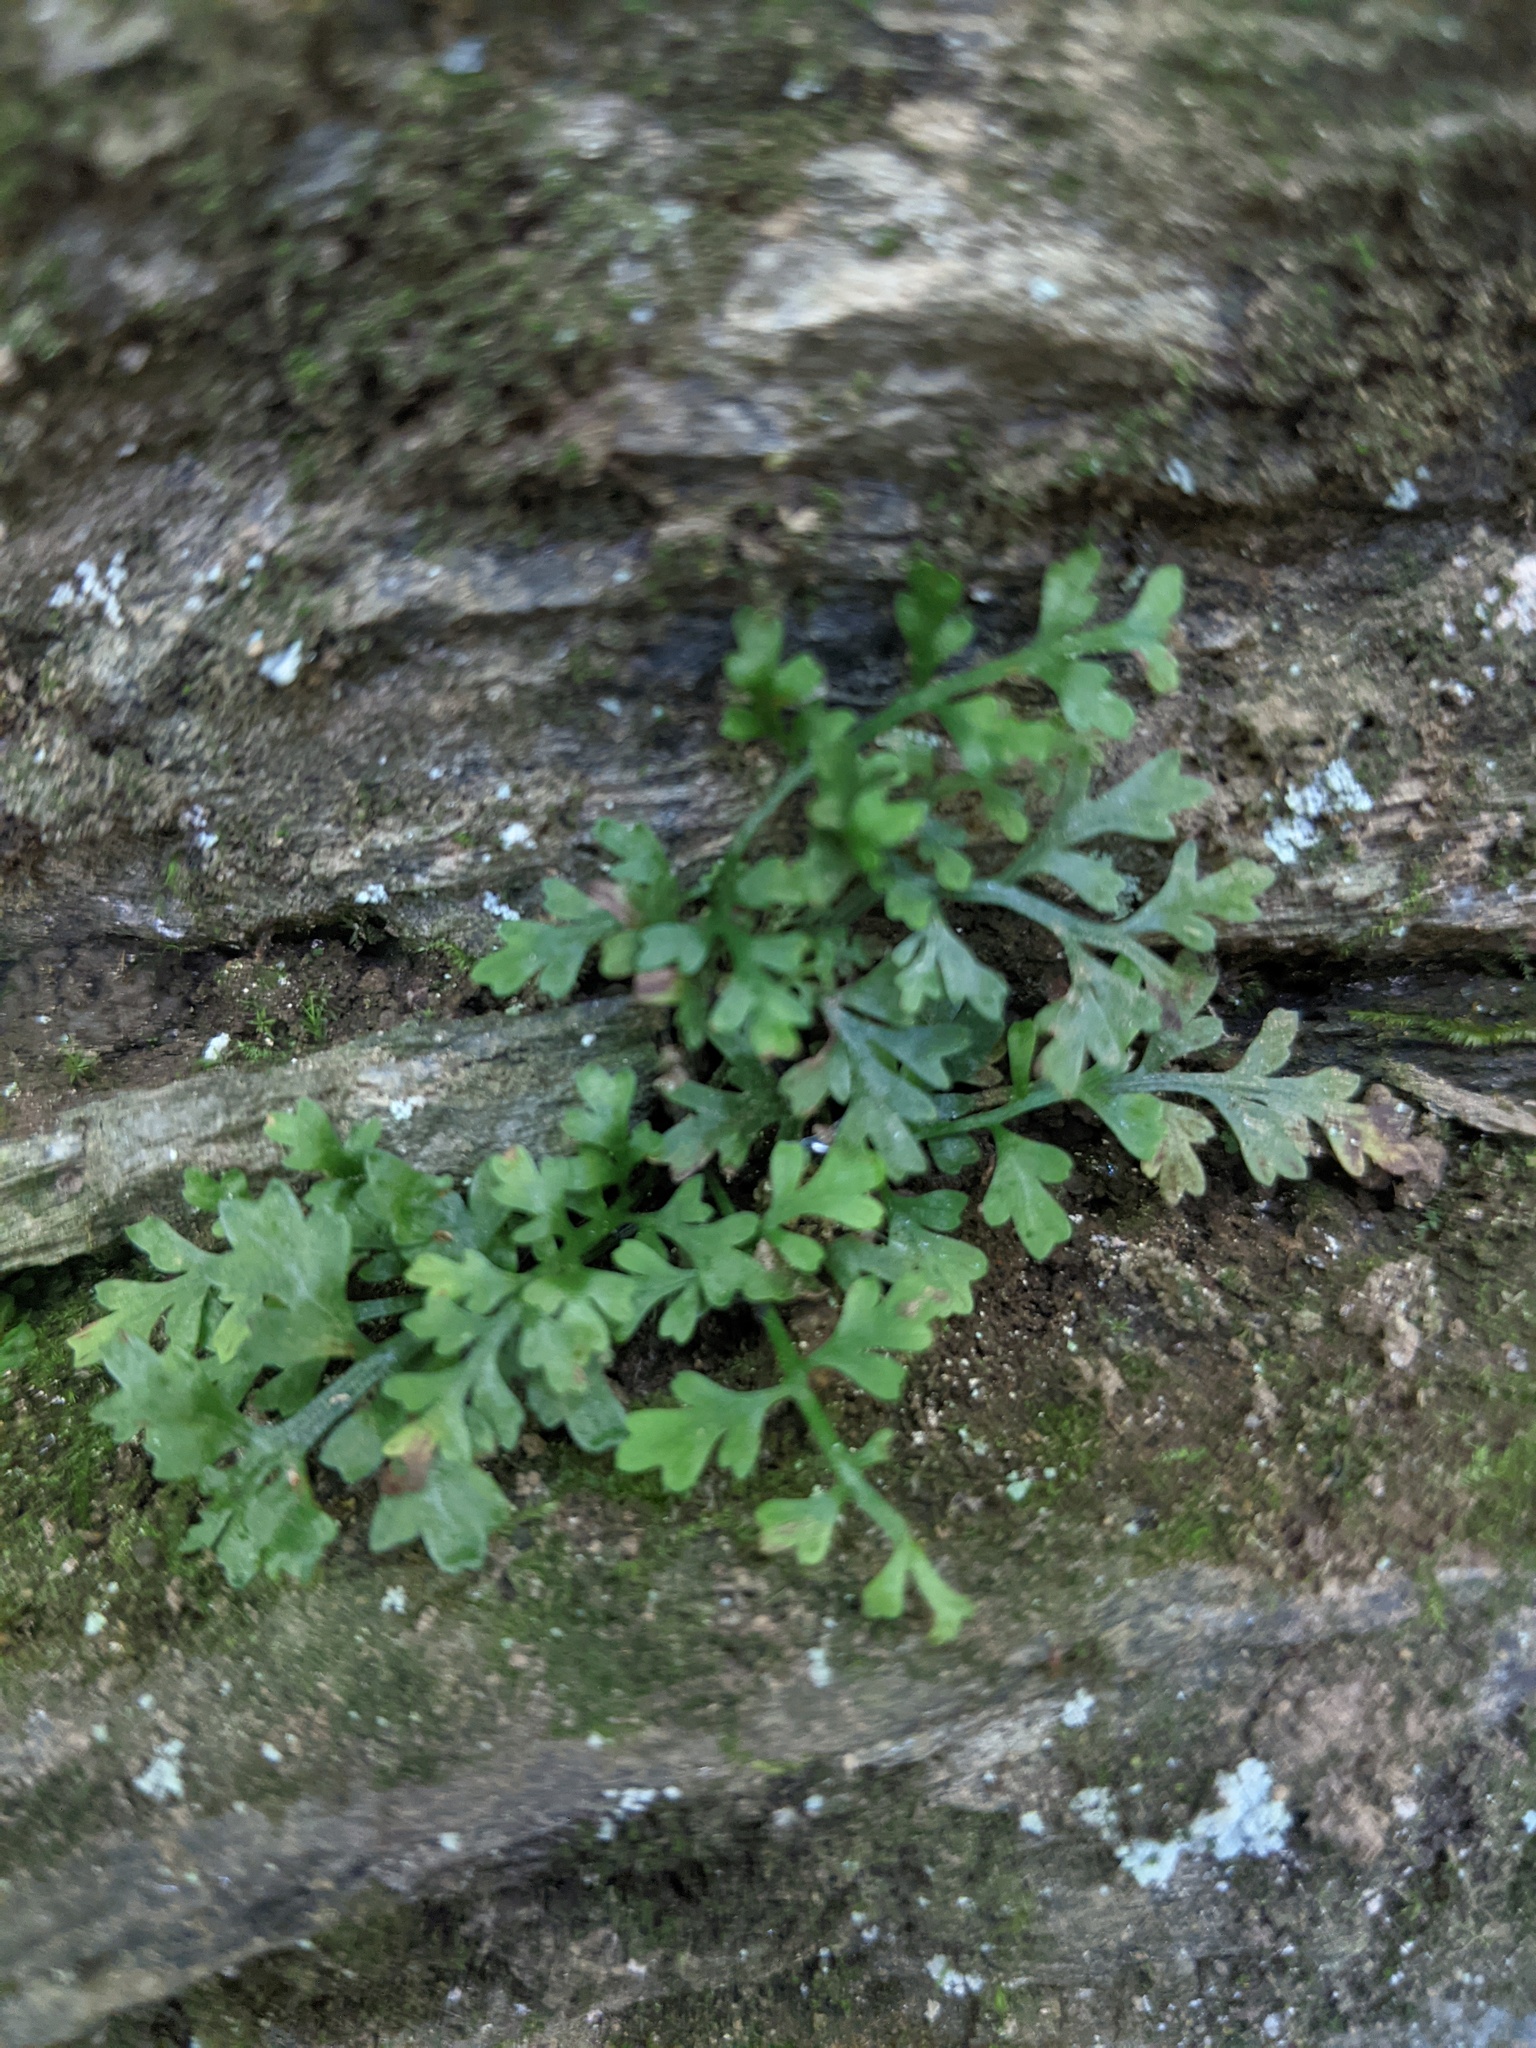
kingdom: Plantae
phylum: Tracheophyta
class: Polypodiopsida
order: Polypodiales
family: Aspleniaceae
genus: Asplenium
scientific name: Asplenium montanum
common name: Mountain spleenwort
